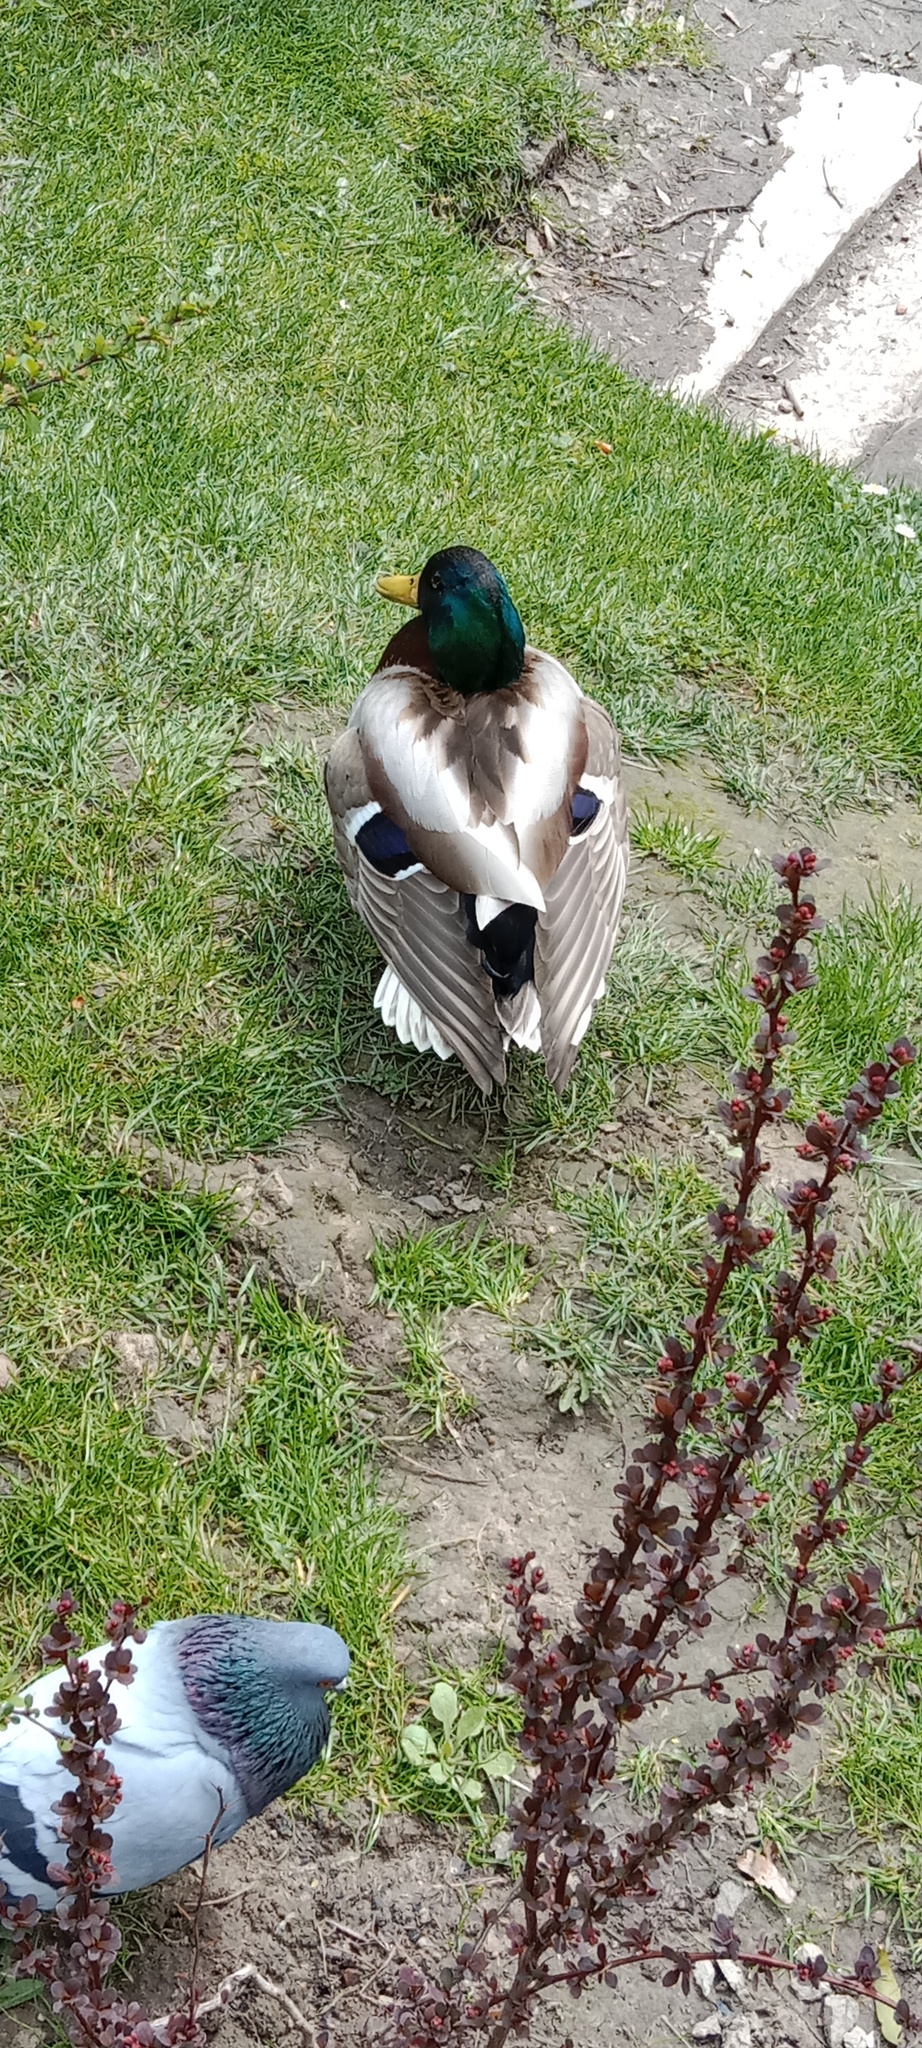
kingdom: Animalia
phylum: Chordata
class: Aves
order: Anseriformes
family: Anatidae
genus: Anas
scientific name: Anas platyrhynchos
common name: Mallard
